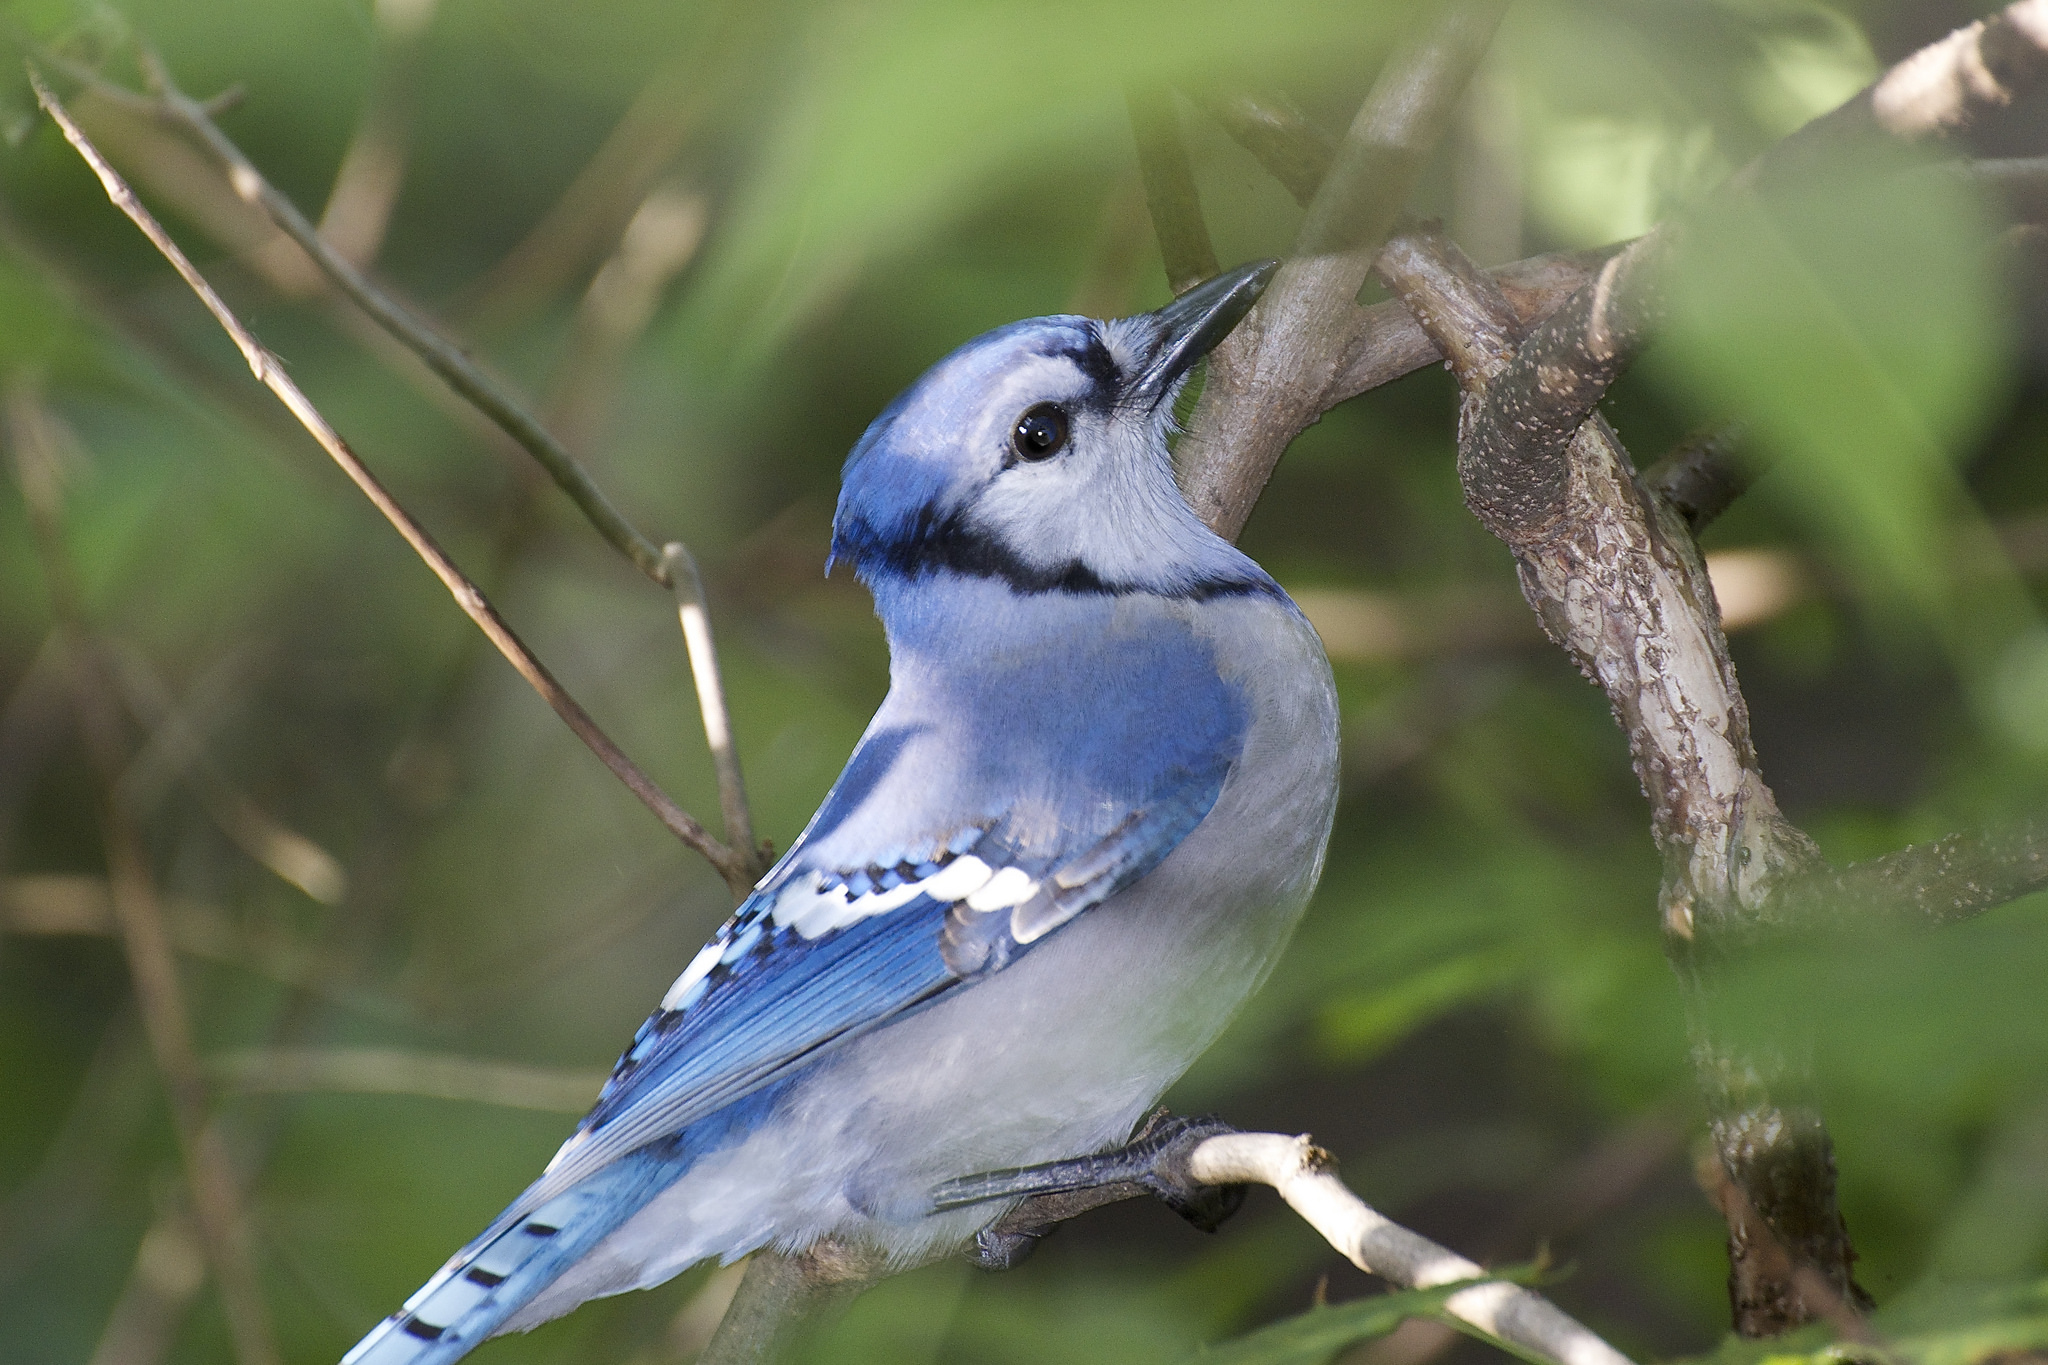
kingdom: Animalia
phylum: Chordata
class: Aves
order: Passeriformes
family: Corvidae
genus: Cyanocitta
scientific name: Cyanocitta cristata
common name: Blue jay
